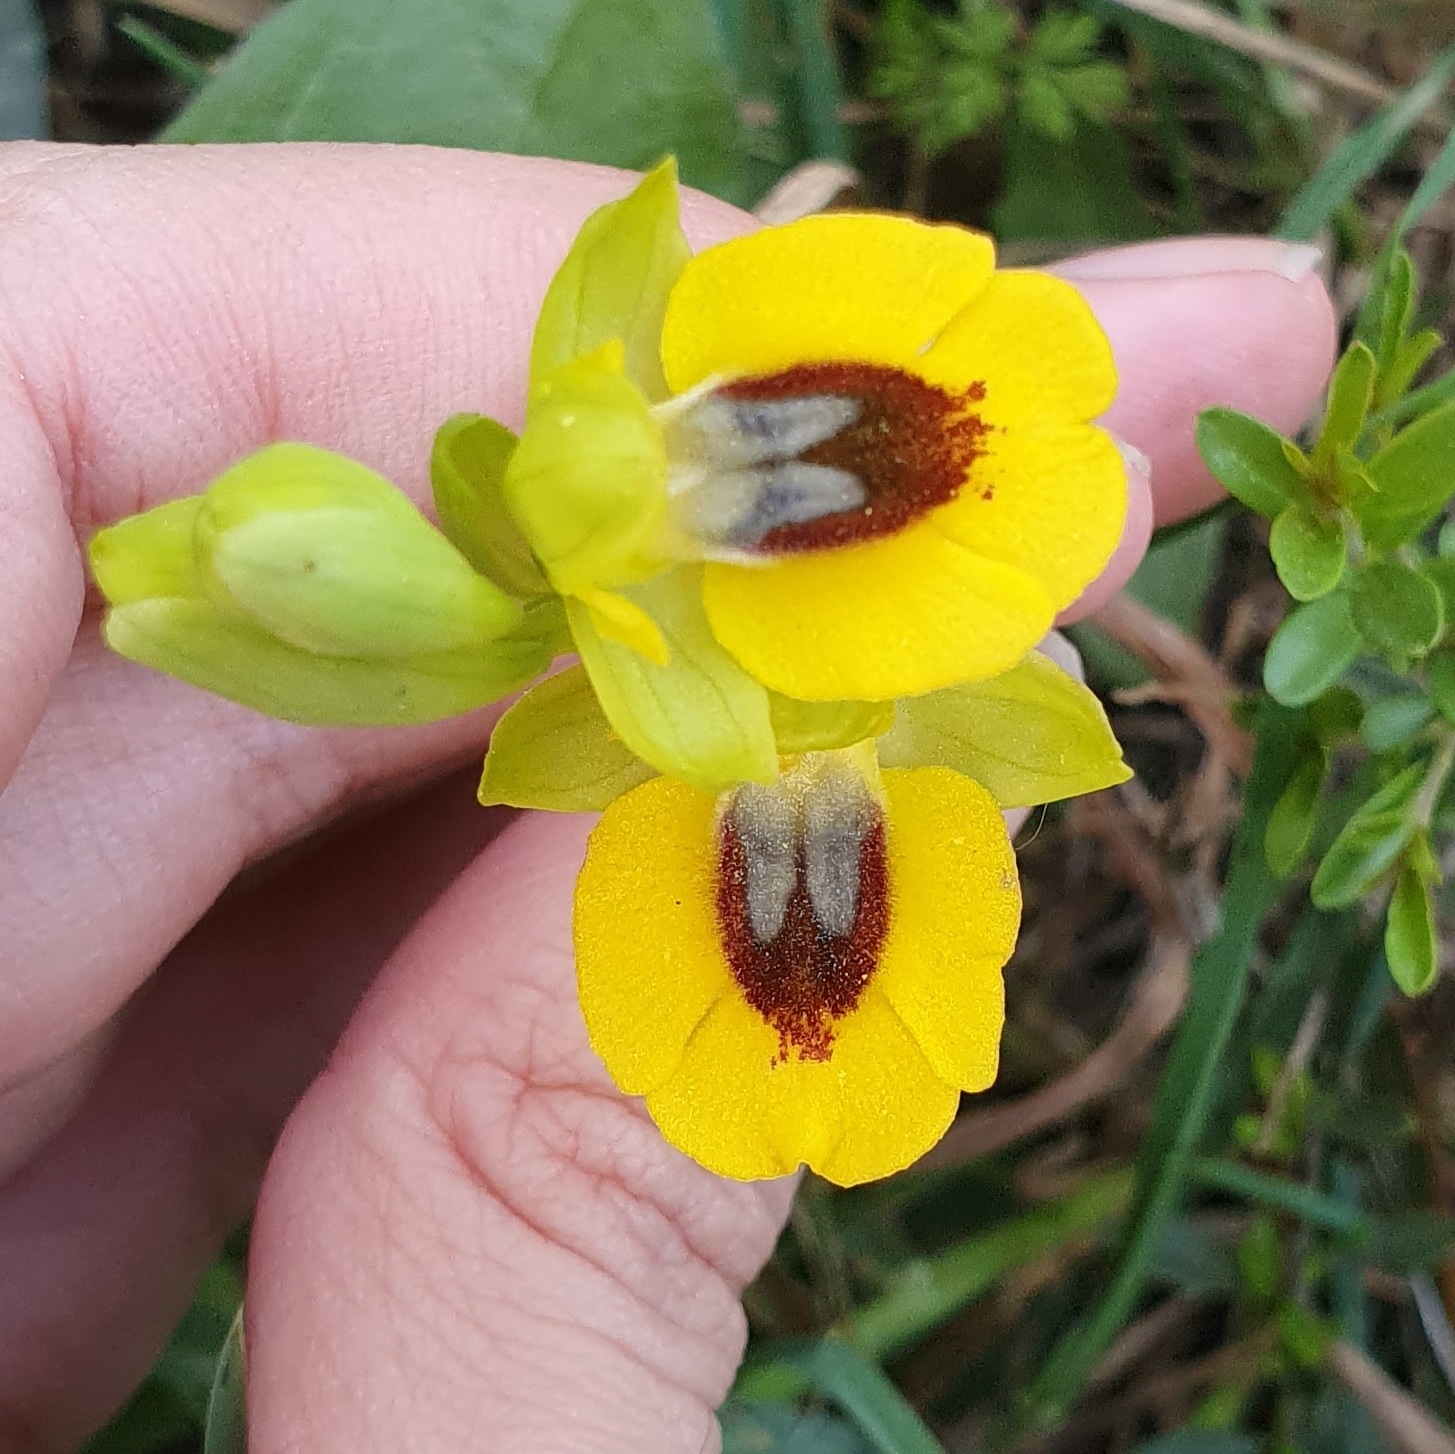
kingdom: Plantae
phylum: Tracheophyta
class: Liliopsida
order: Asparagales
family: Orchidaceae
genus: Ophrys
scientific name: Ophrys lutea
